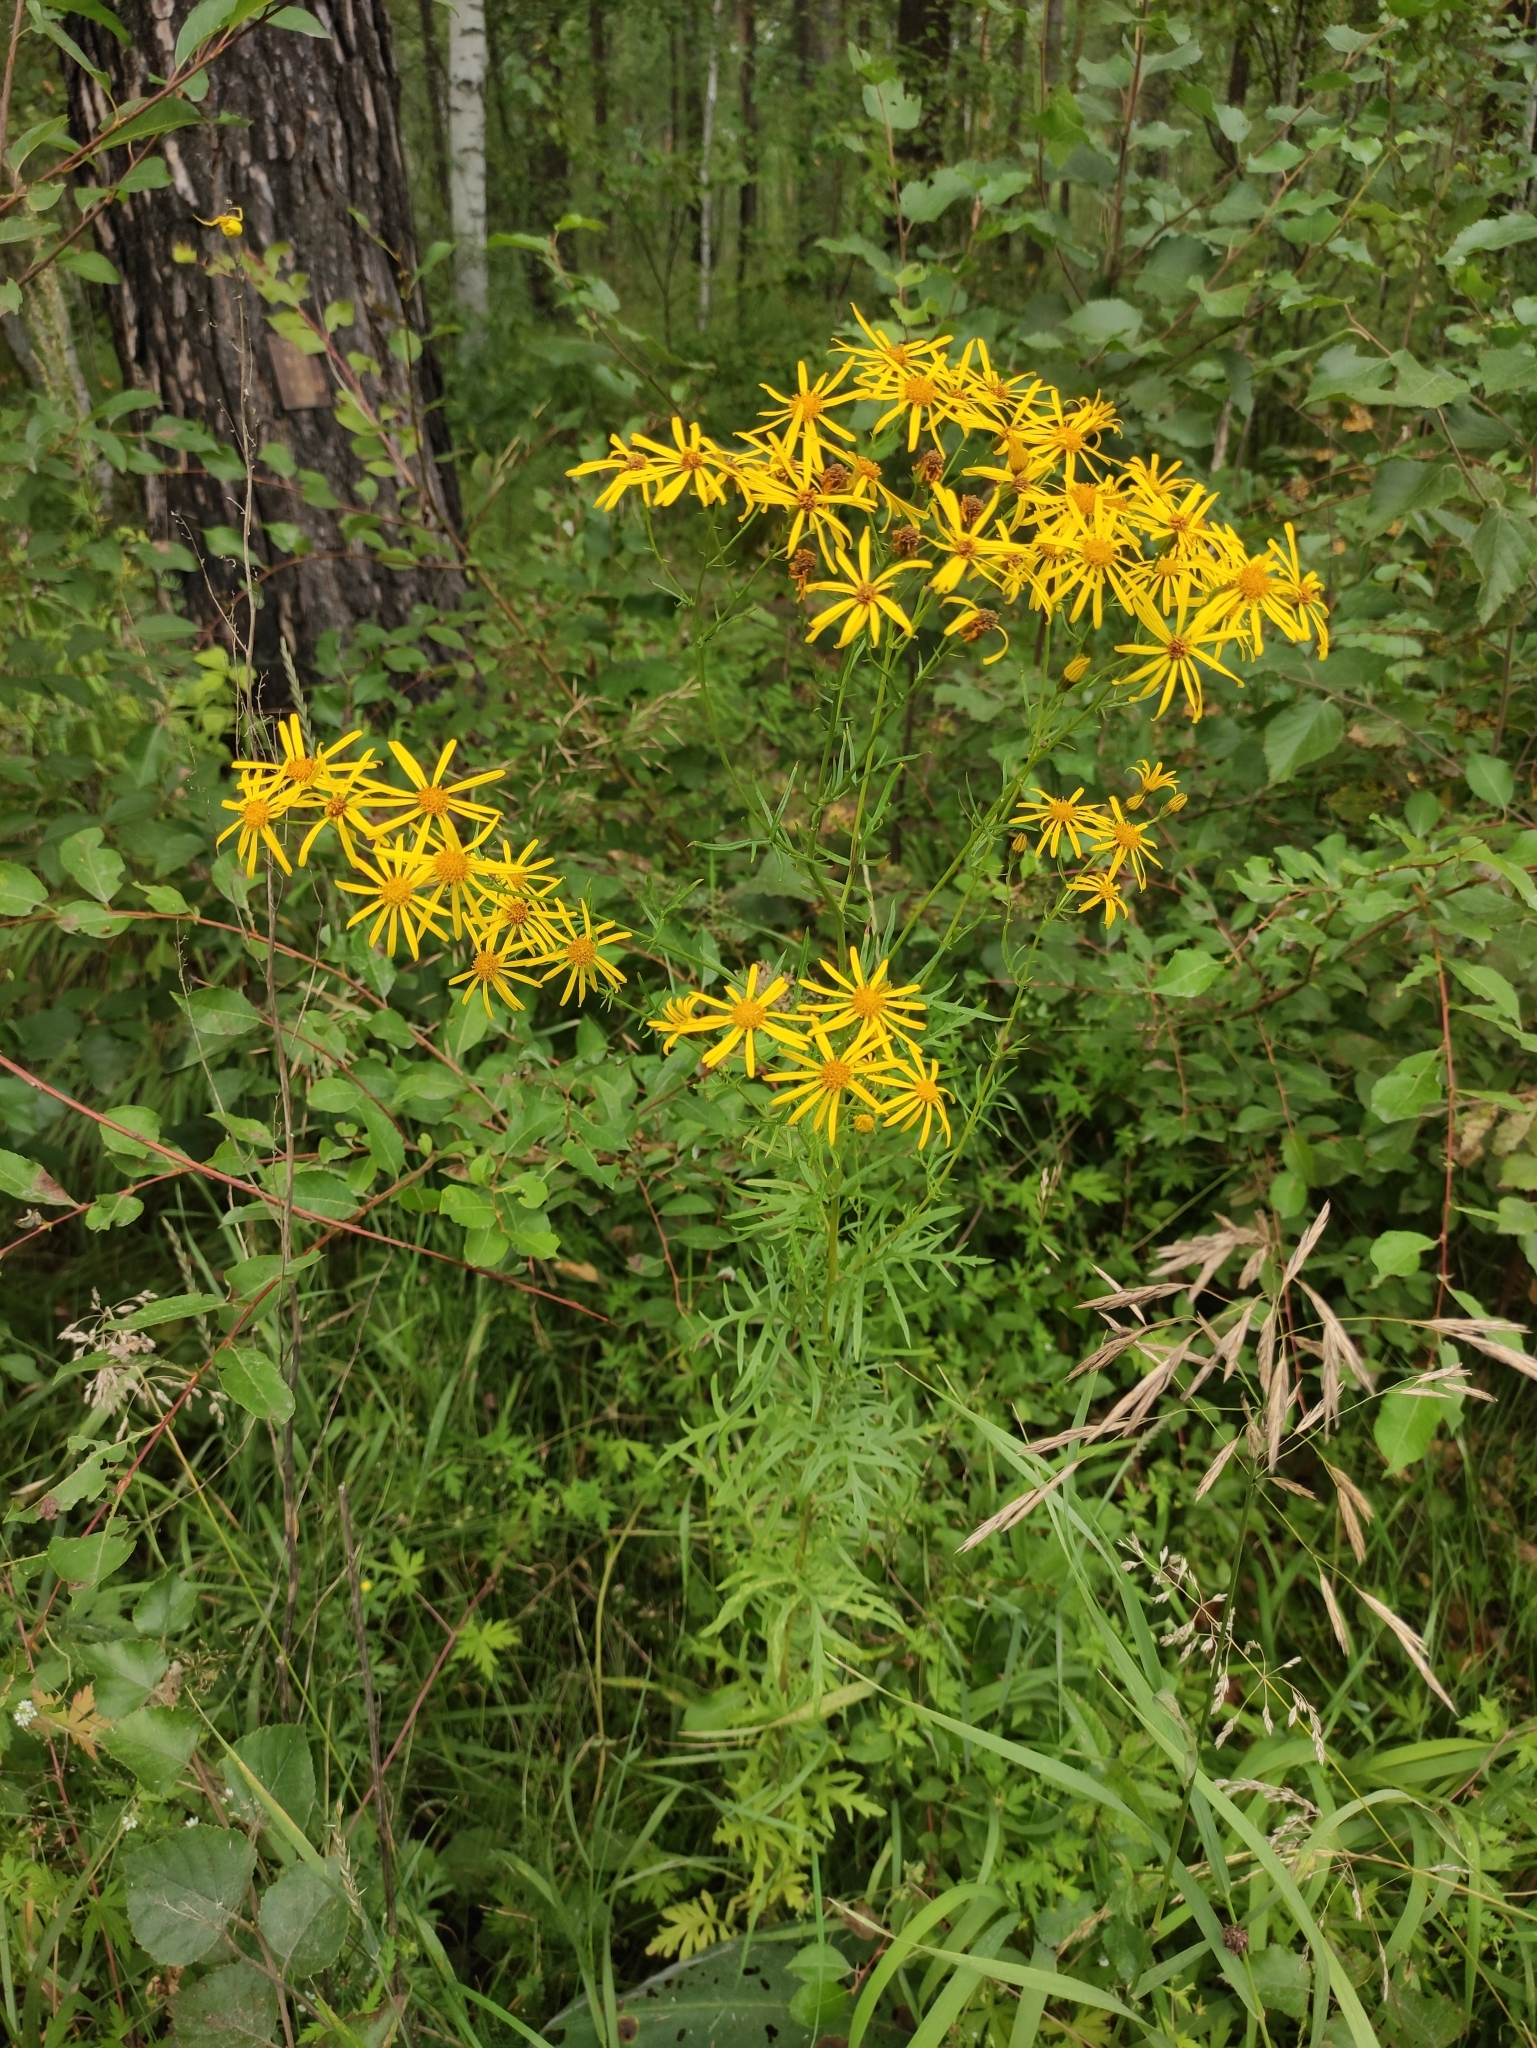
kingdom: Plantae
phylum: Tracheophyta
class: Magnoliopsida
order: Asterales
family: Asteraceae
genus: Jacobaea
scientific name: Jacobaea erucifolia
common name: Hoary ragwort
